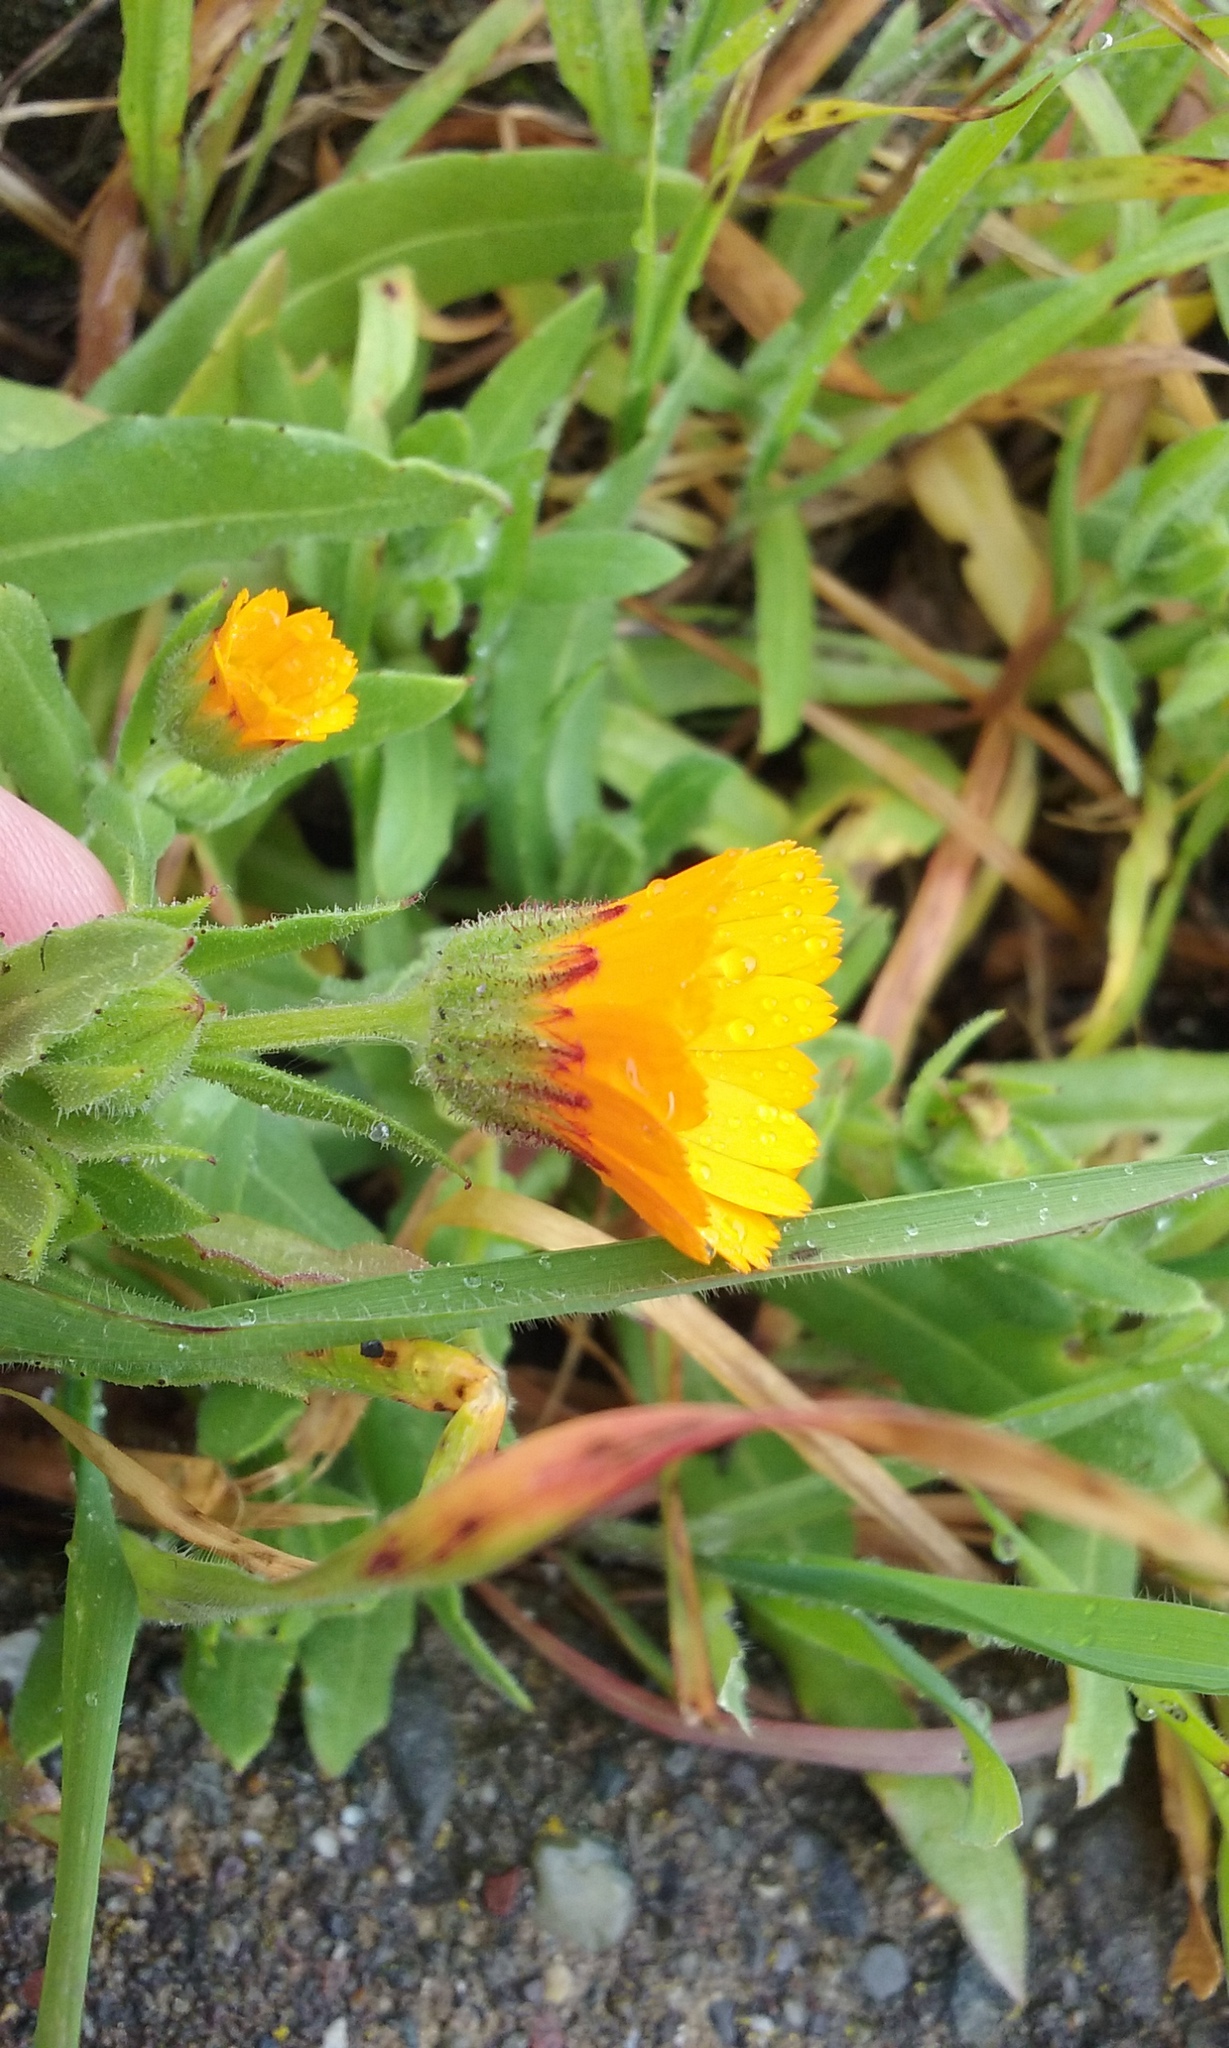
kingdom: Plantae
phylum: Tracheophyta
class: Magnoliopsida
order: Asterales
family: Asteraceae
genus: Calendula
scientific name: Calendula arvensis
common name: Field marigold
